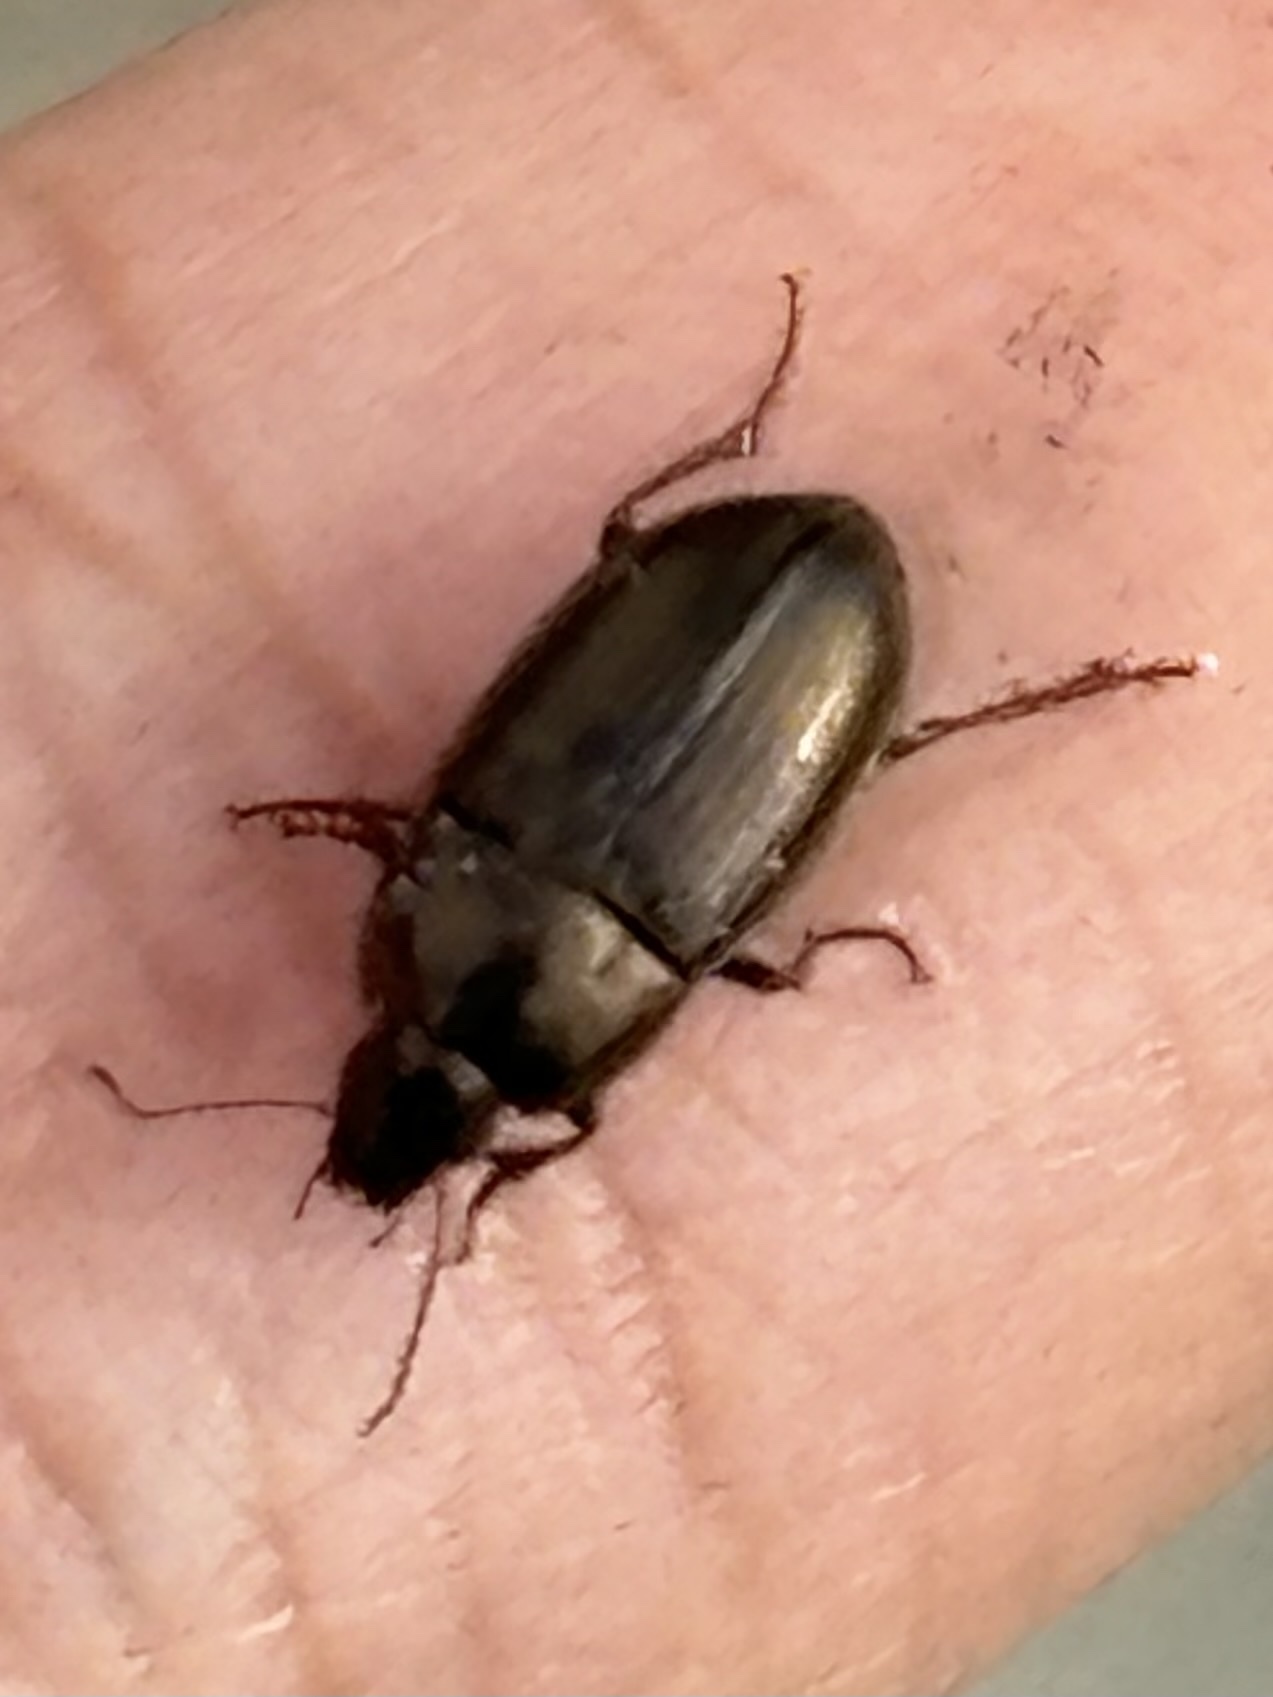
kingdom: Animalia
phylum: Arthropoda
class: Insecta
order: Coleoptera
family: Carabidae
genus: Amara
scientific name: Amara
